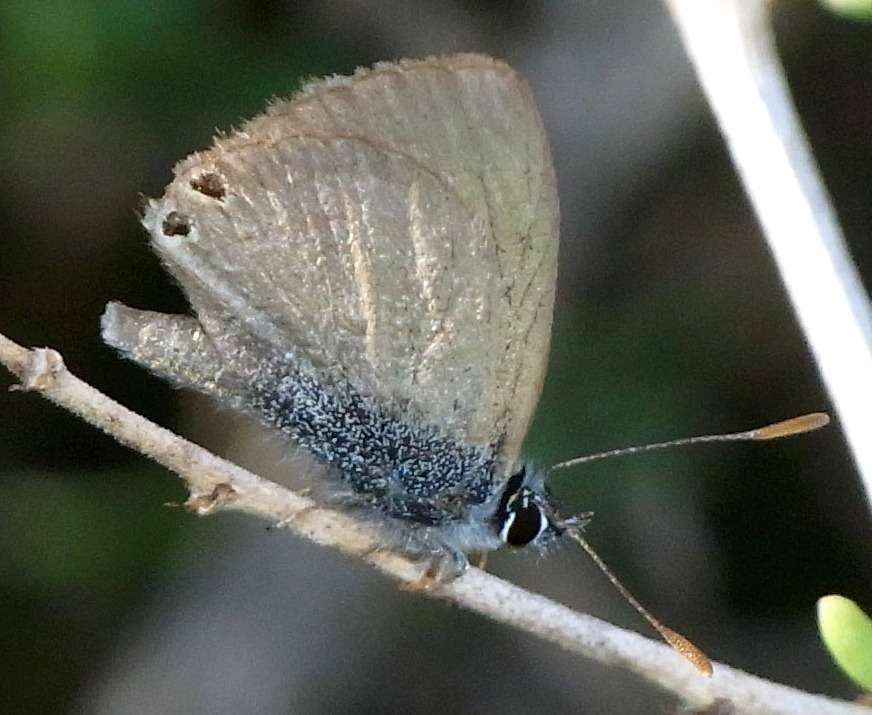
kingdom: Animalia
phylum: Arthropoda
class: Insecta
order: Lepidoptera
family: Lycaenidae
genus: Nacaduba
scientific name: Nacaduba biocellata
